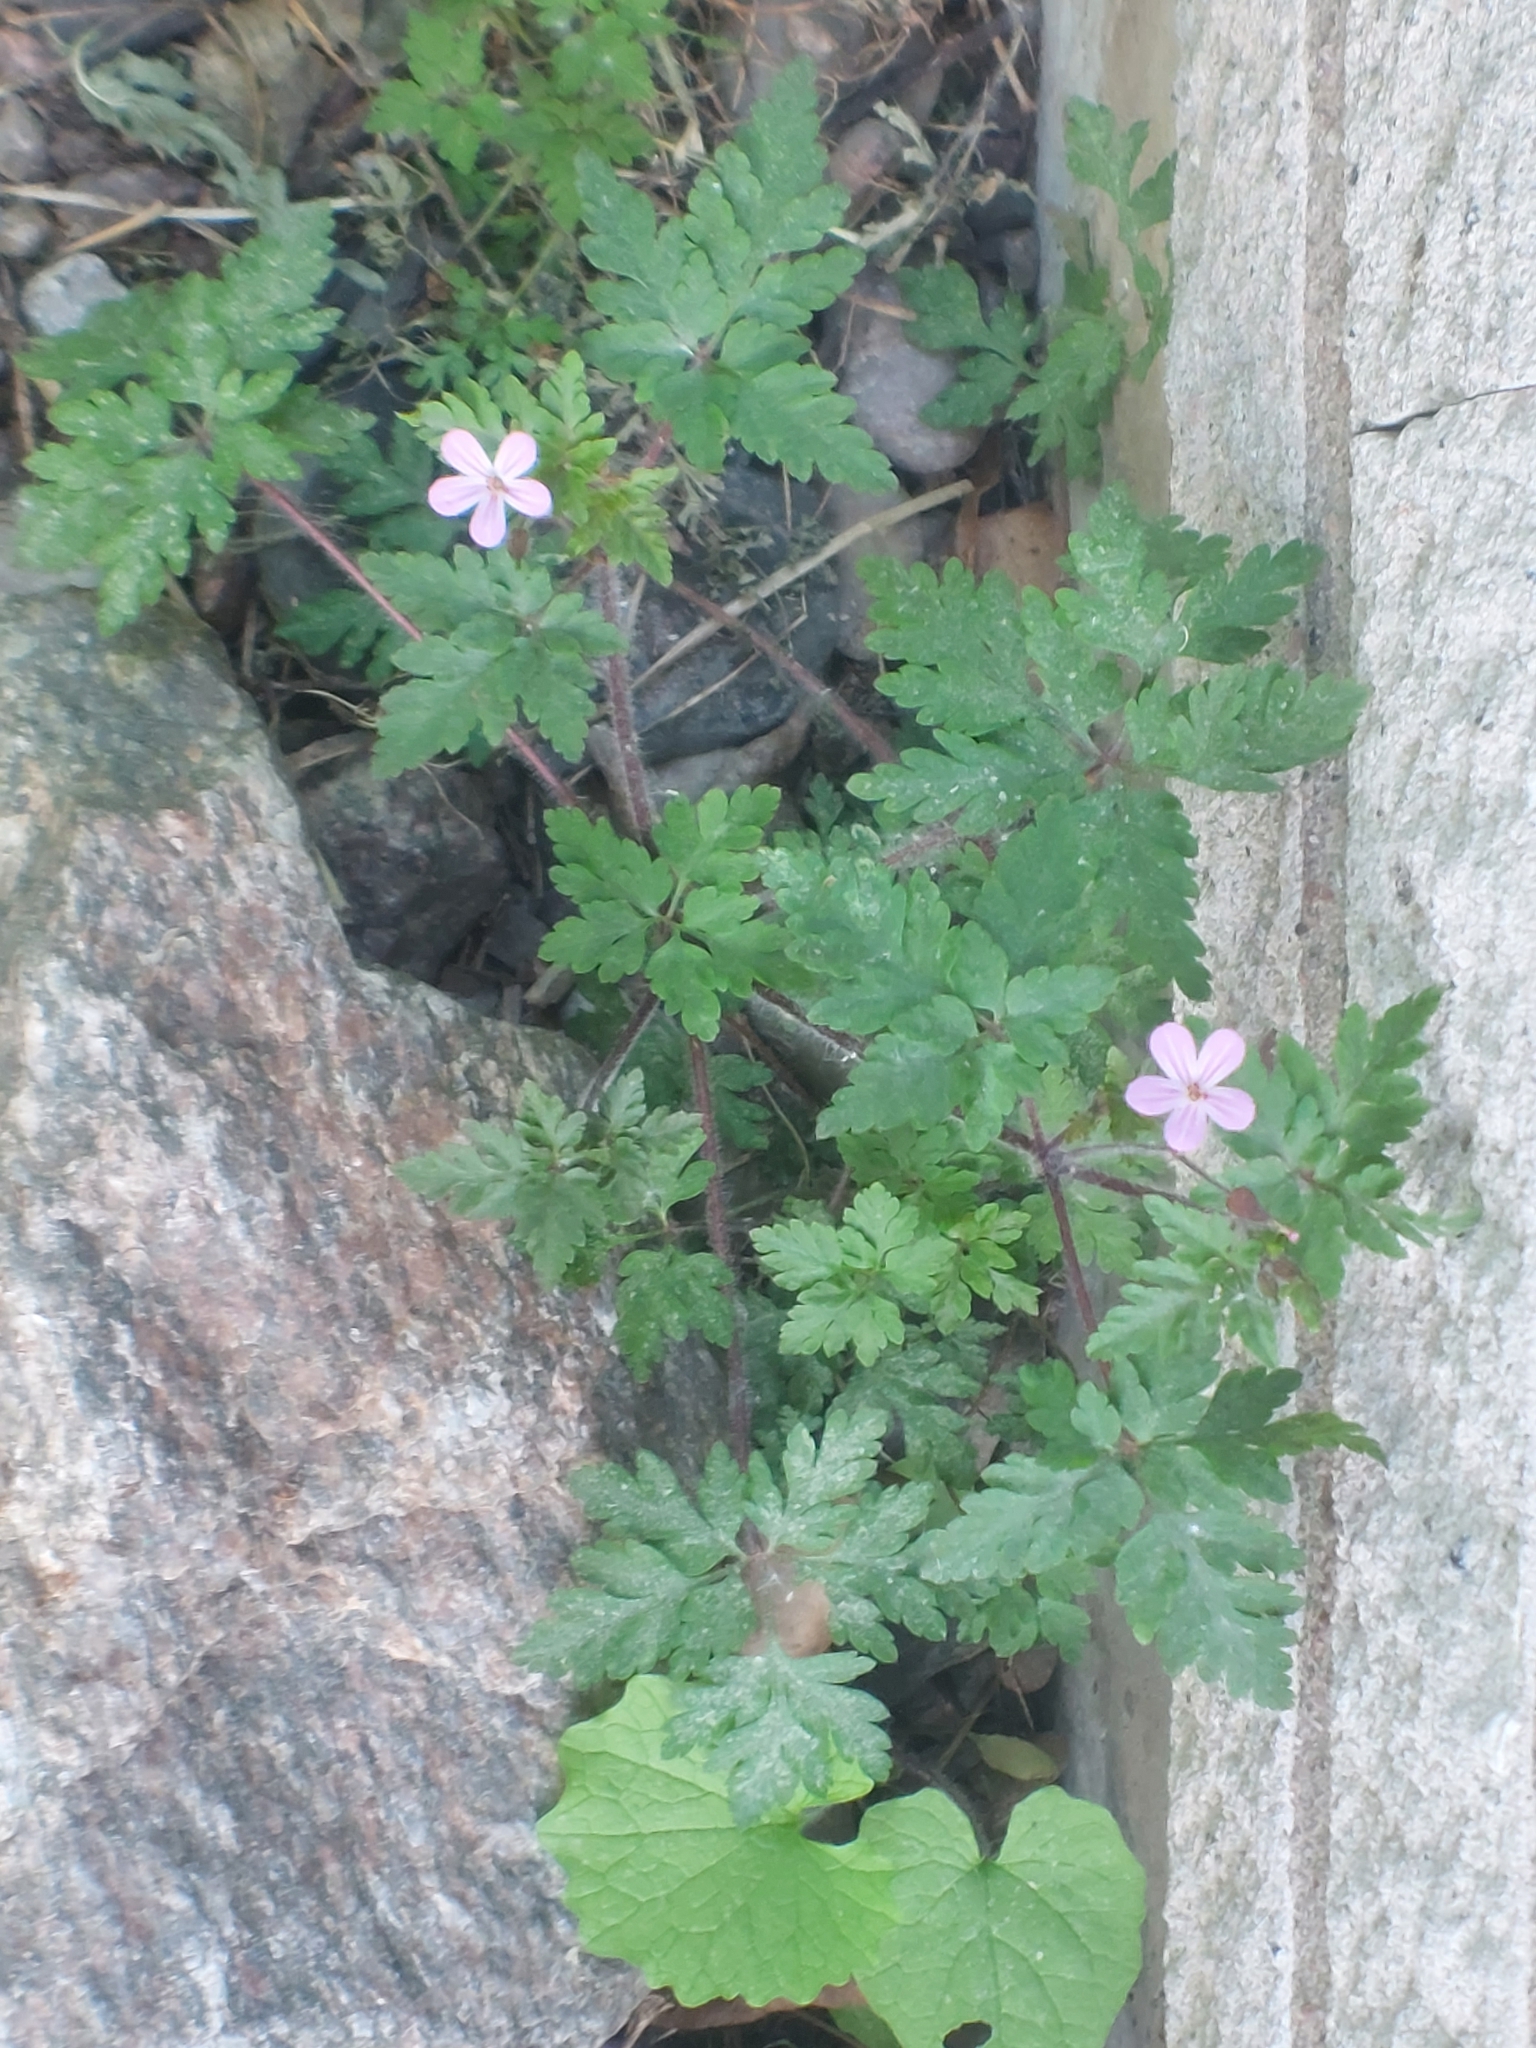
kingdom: Plantae
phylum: Tracheophyta
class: Magnoliopsida
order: Geraniales
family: Geraniaceae
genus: Geranium
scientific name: Geranium robertianum
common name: Herb-robert
